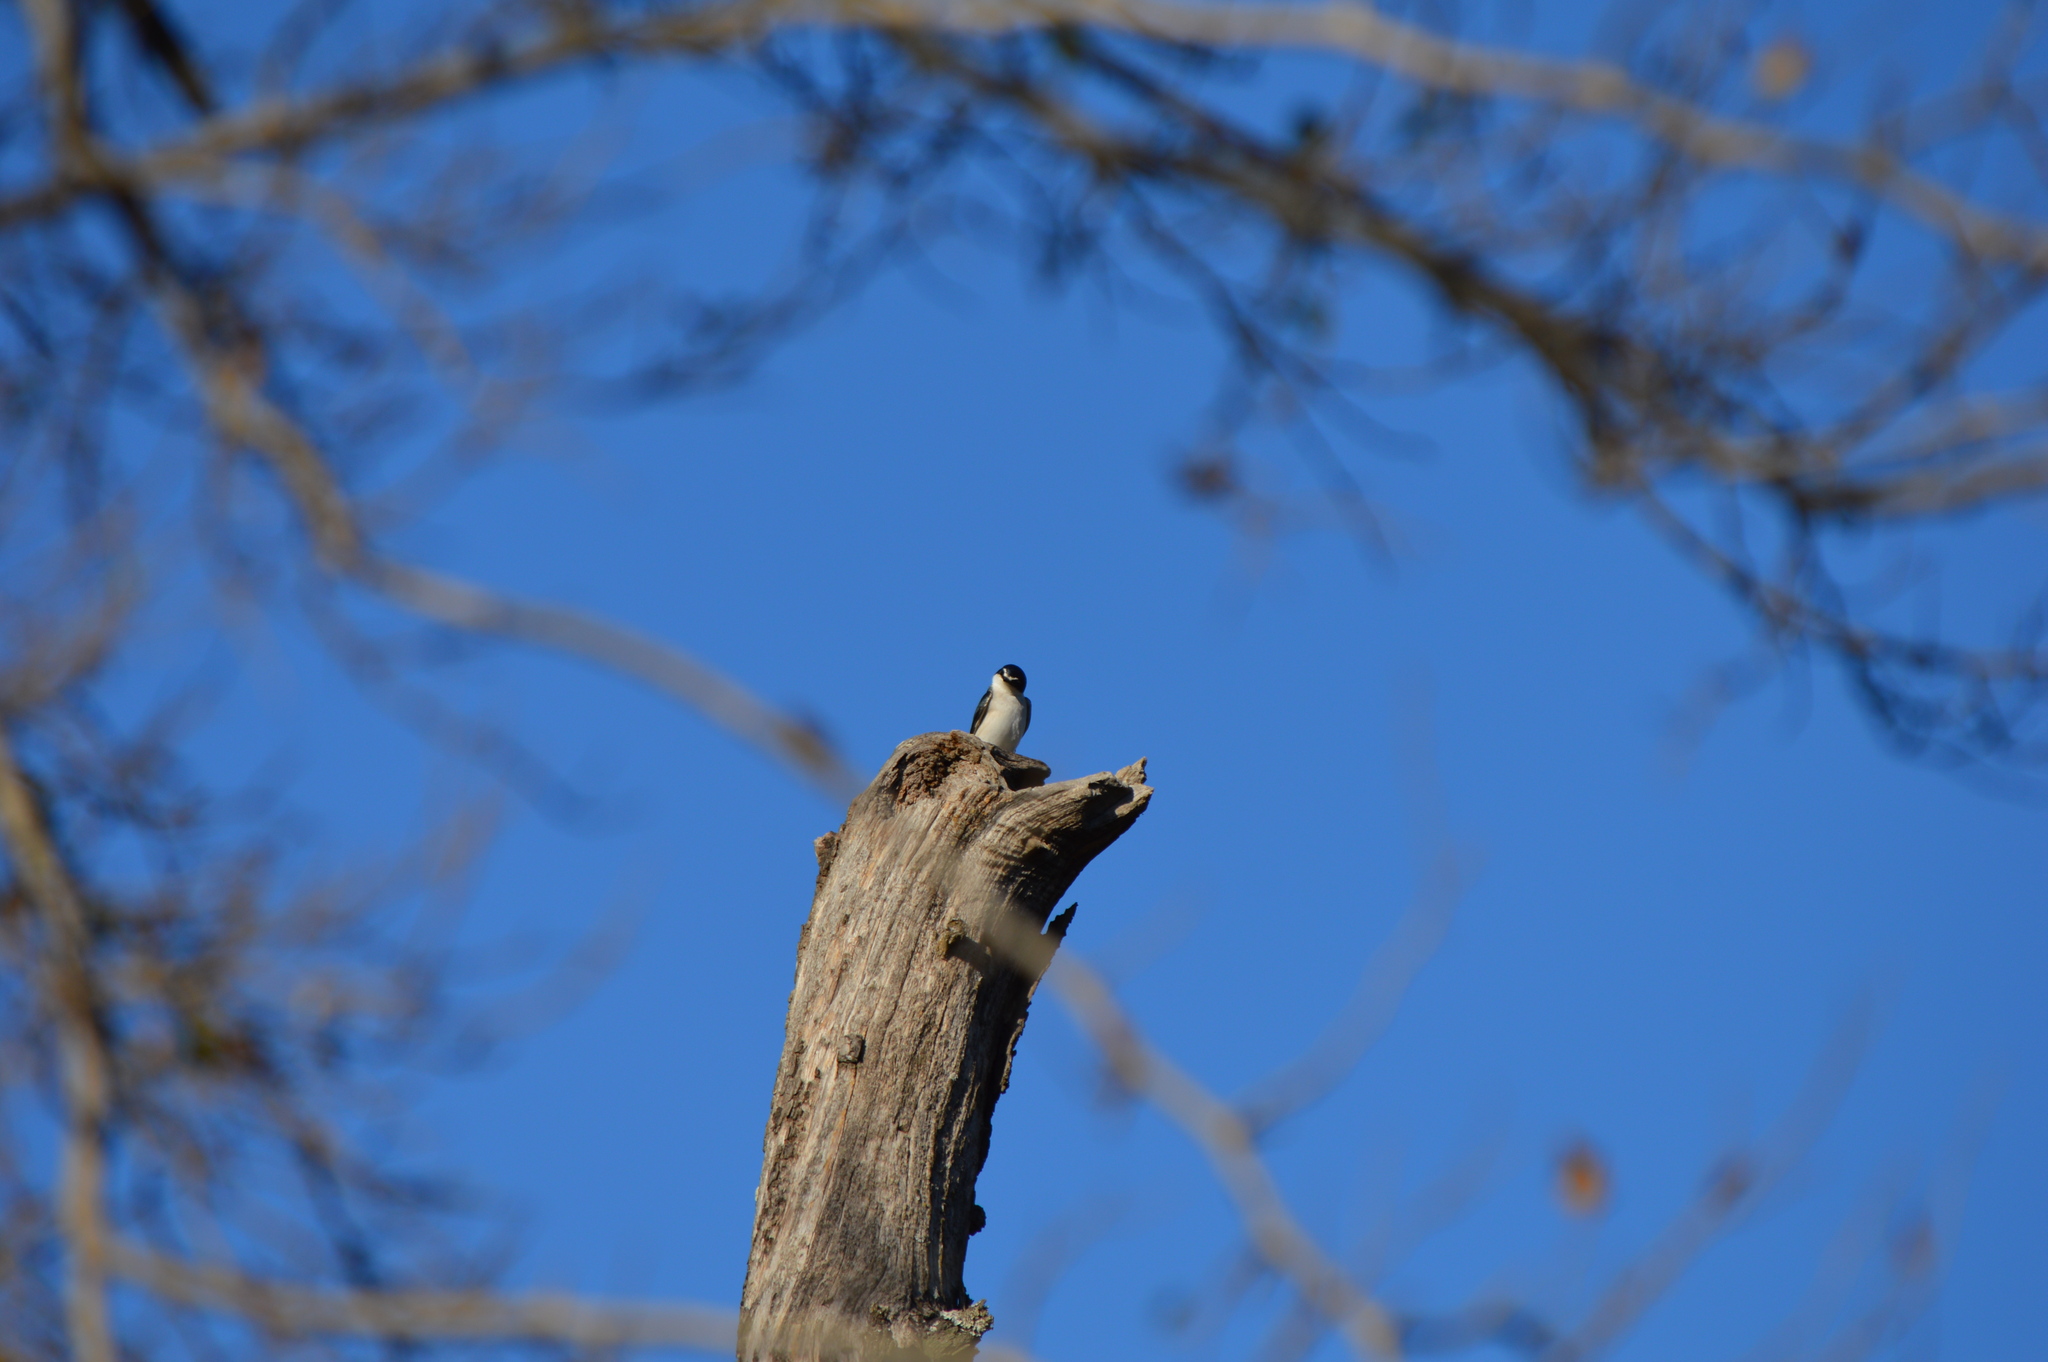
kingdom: Animalia
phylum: Chordata
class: Aves
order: Passeriformes
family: Hirundinidae
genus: Tachycineta
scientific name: Tachycineta leucorrhoa
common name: White-rumped swallow
